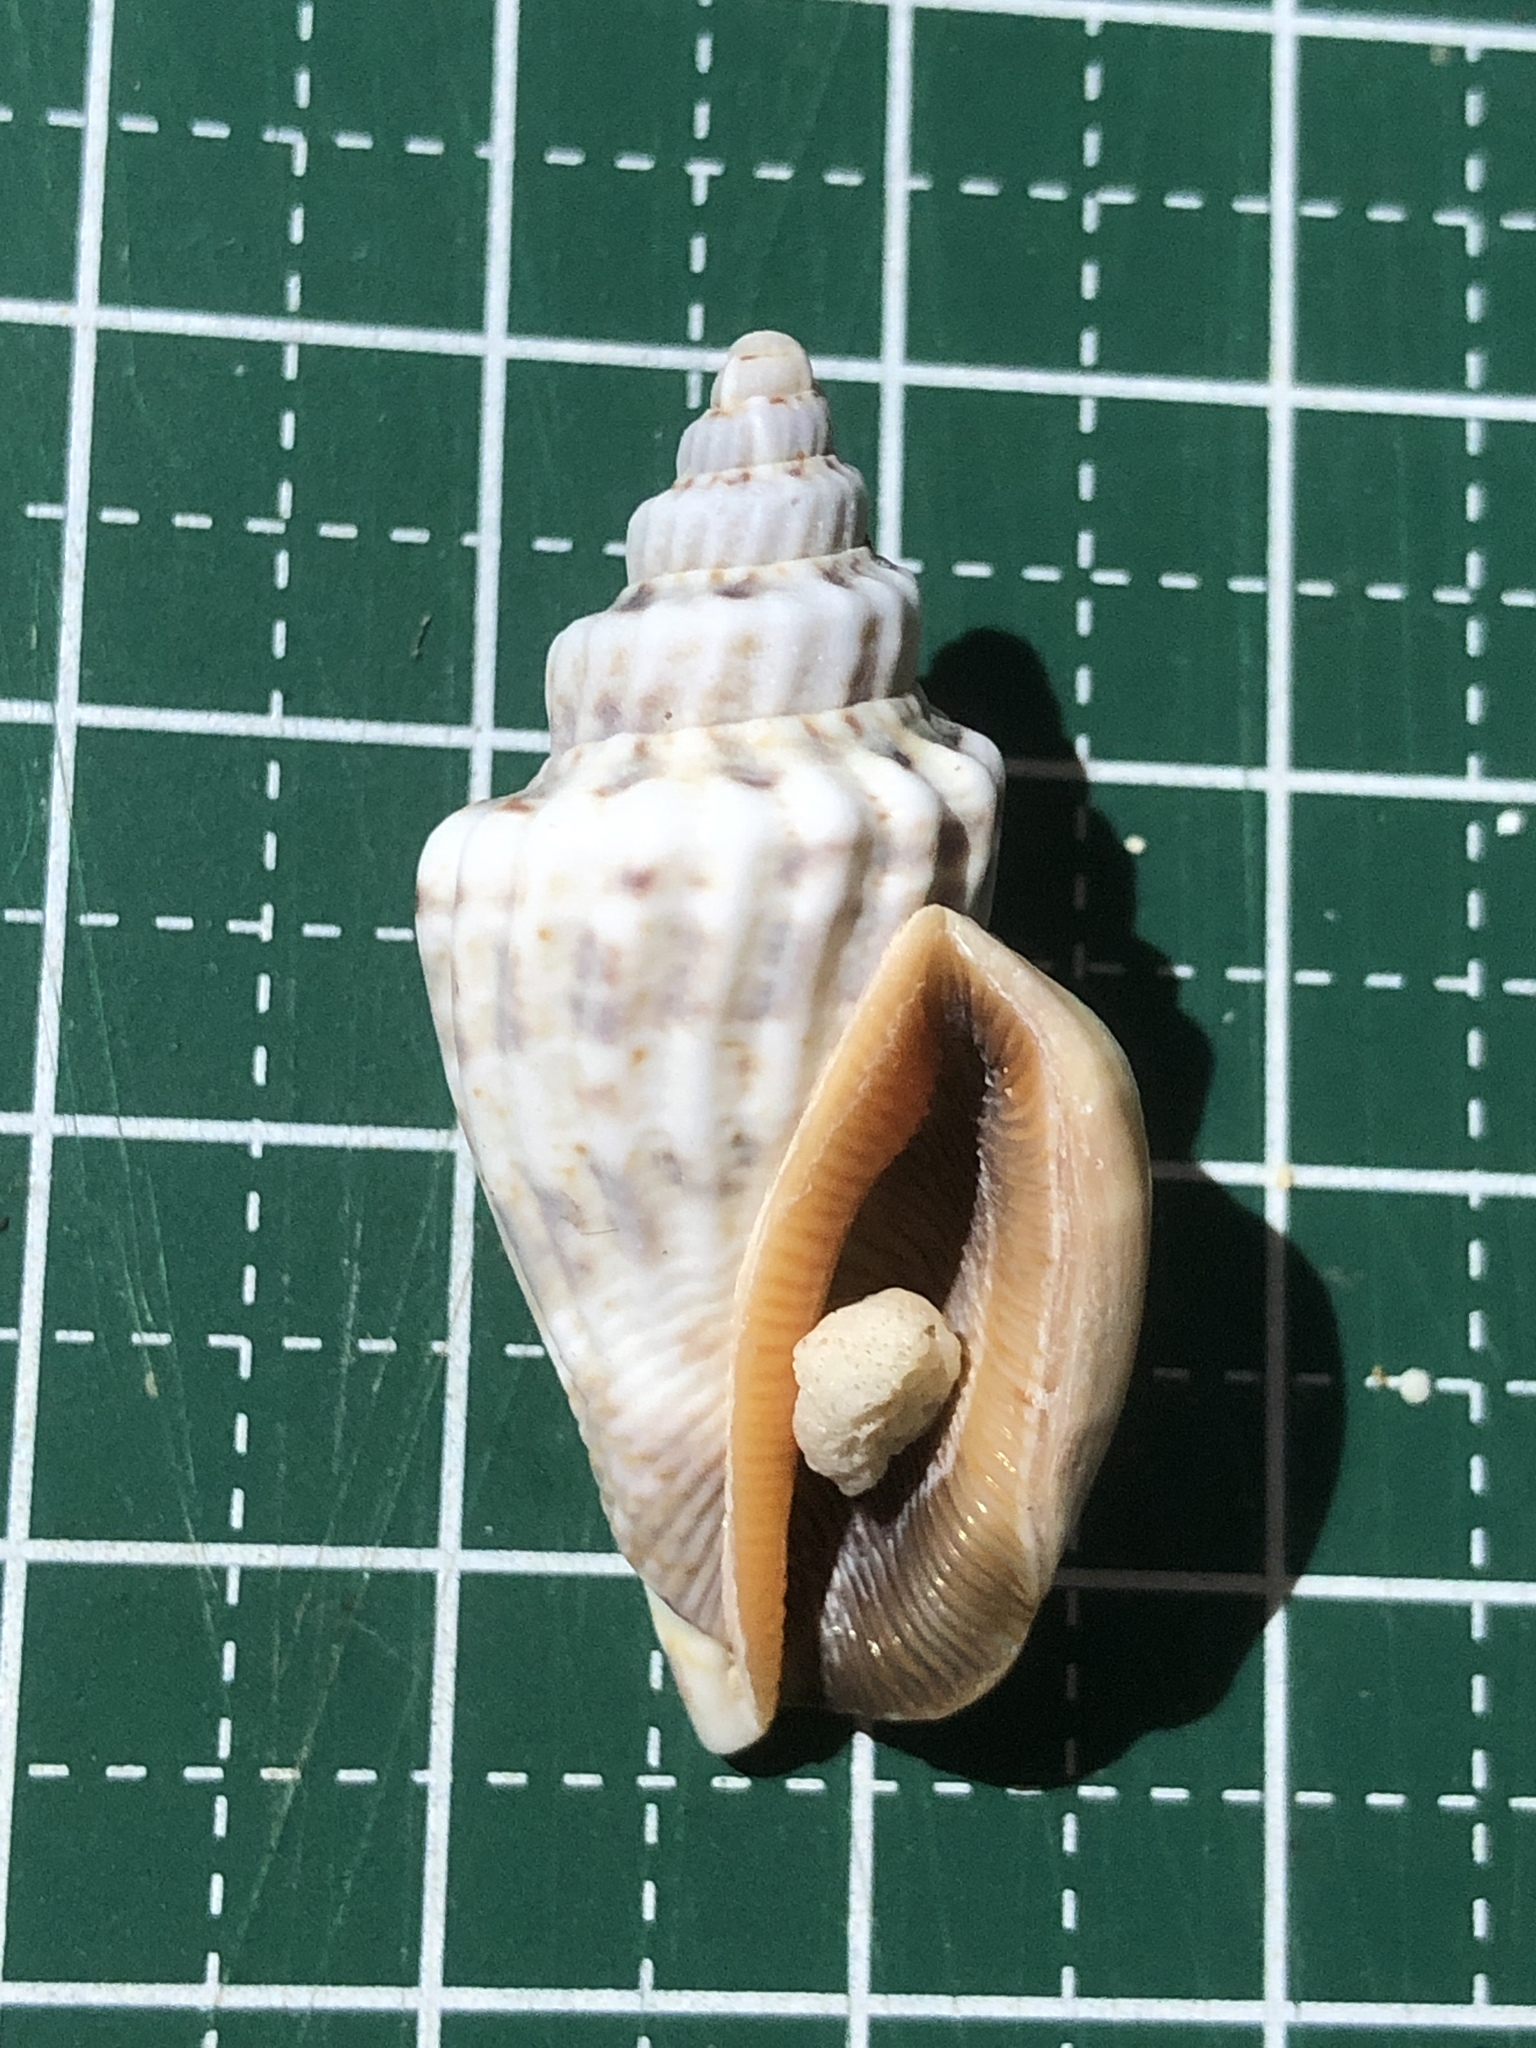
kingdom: Animalia
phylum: Mollusca
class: Gastropoda
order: Littorinimorpha
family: Strombidae
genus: Canarium
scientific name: Canarium labiatum
